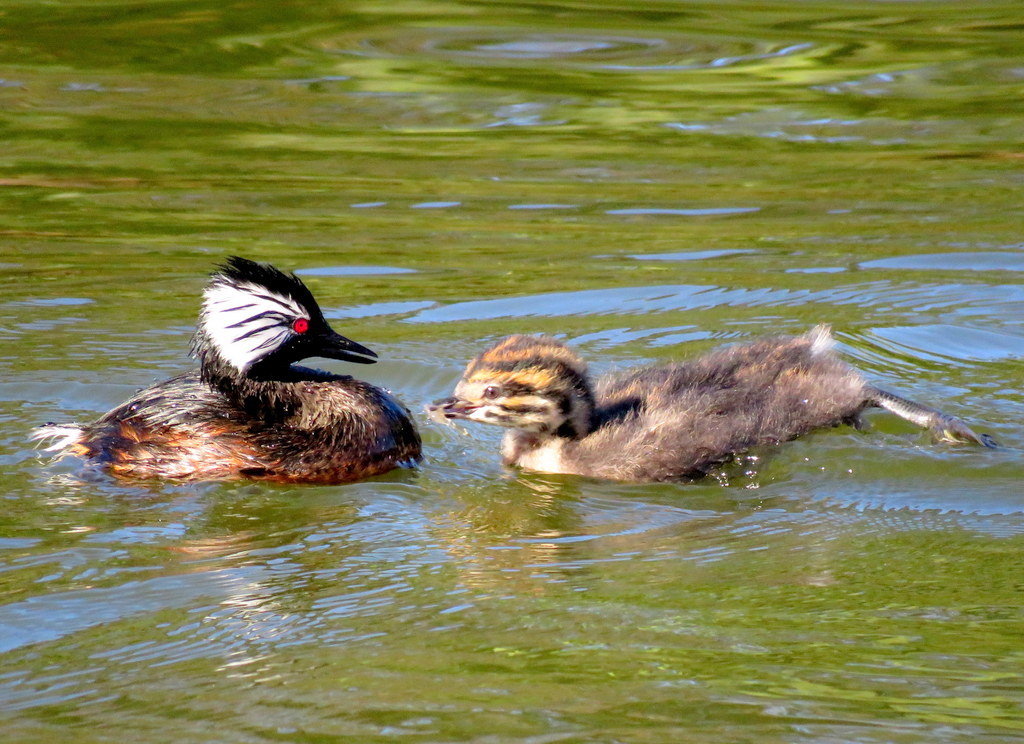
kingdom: Animalia
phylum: Chordata
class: Aves
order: Podicipediformes
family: Podicipedidae
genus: Rollandia
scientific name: Rollandia rolland
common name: White-tufted grebe
